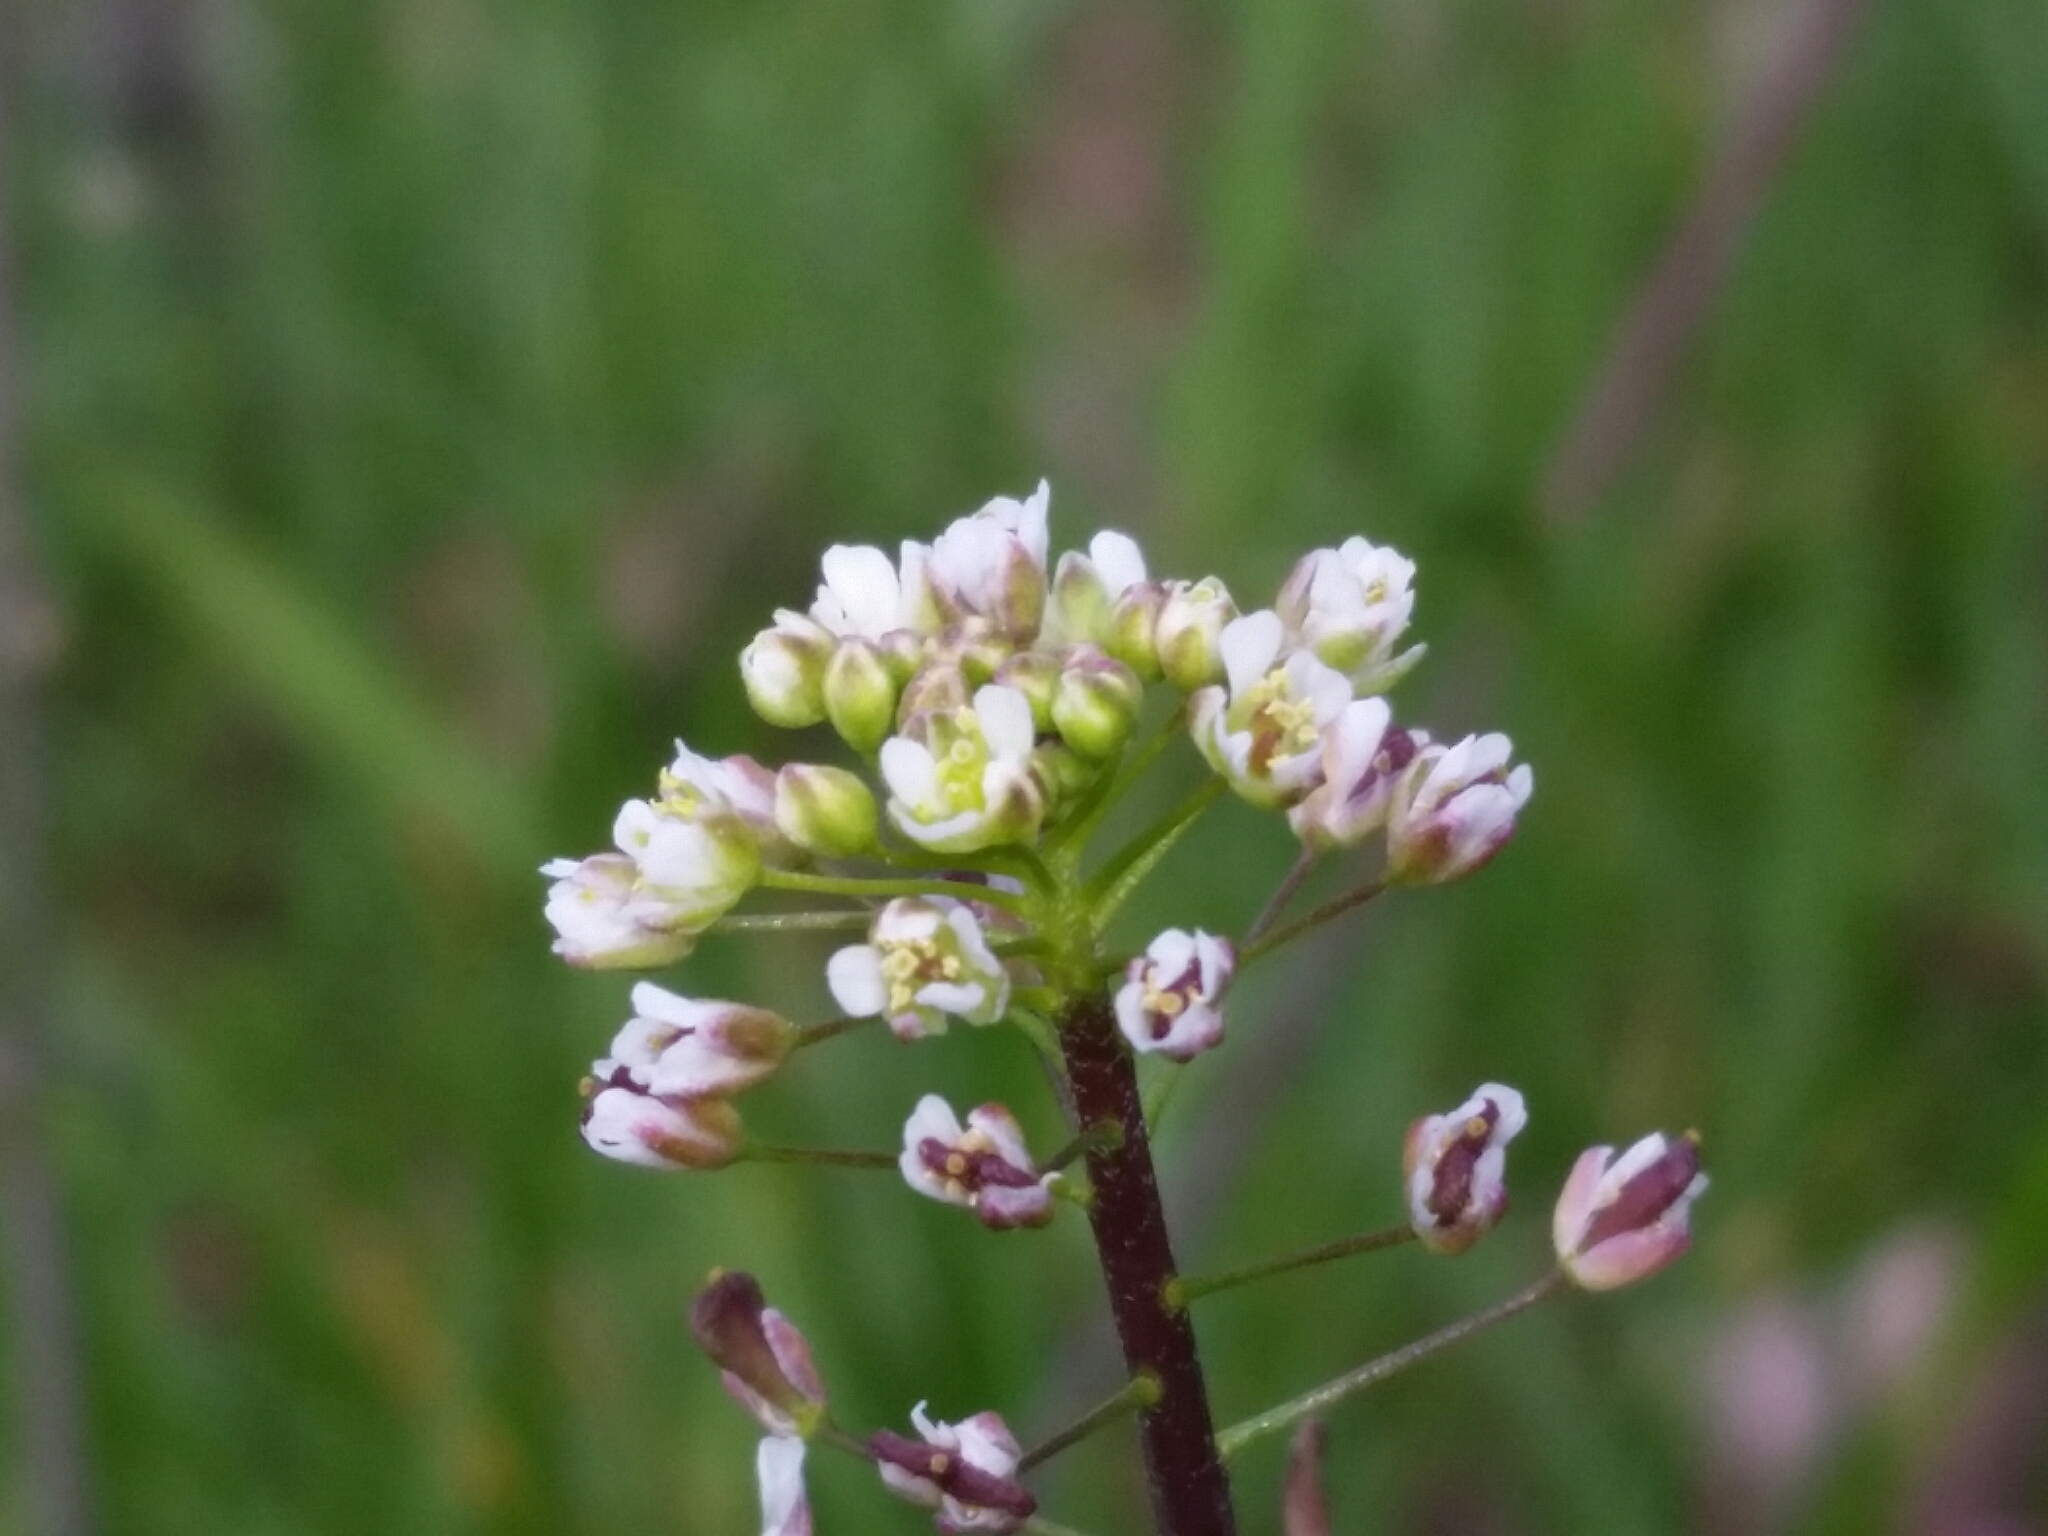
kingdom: Plantae
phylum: Tracheophyta
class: Magnoliopsida
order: Brassicales
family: Brassicaceae
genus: Capsella
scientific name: Capsella bursa-pastoris
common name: Shepherd's purse
